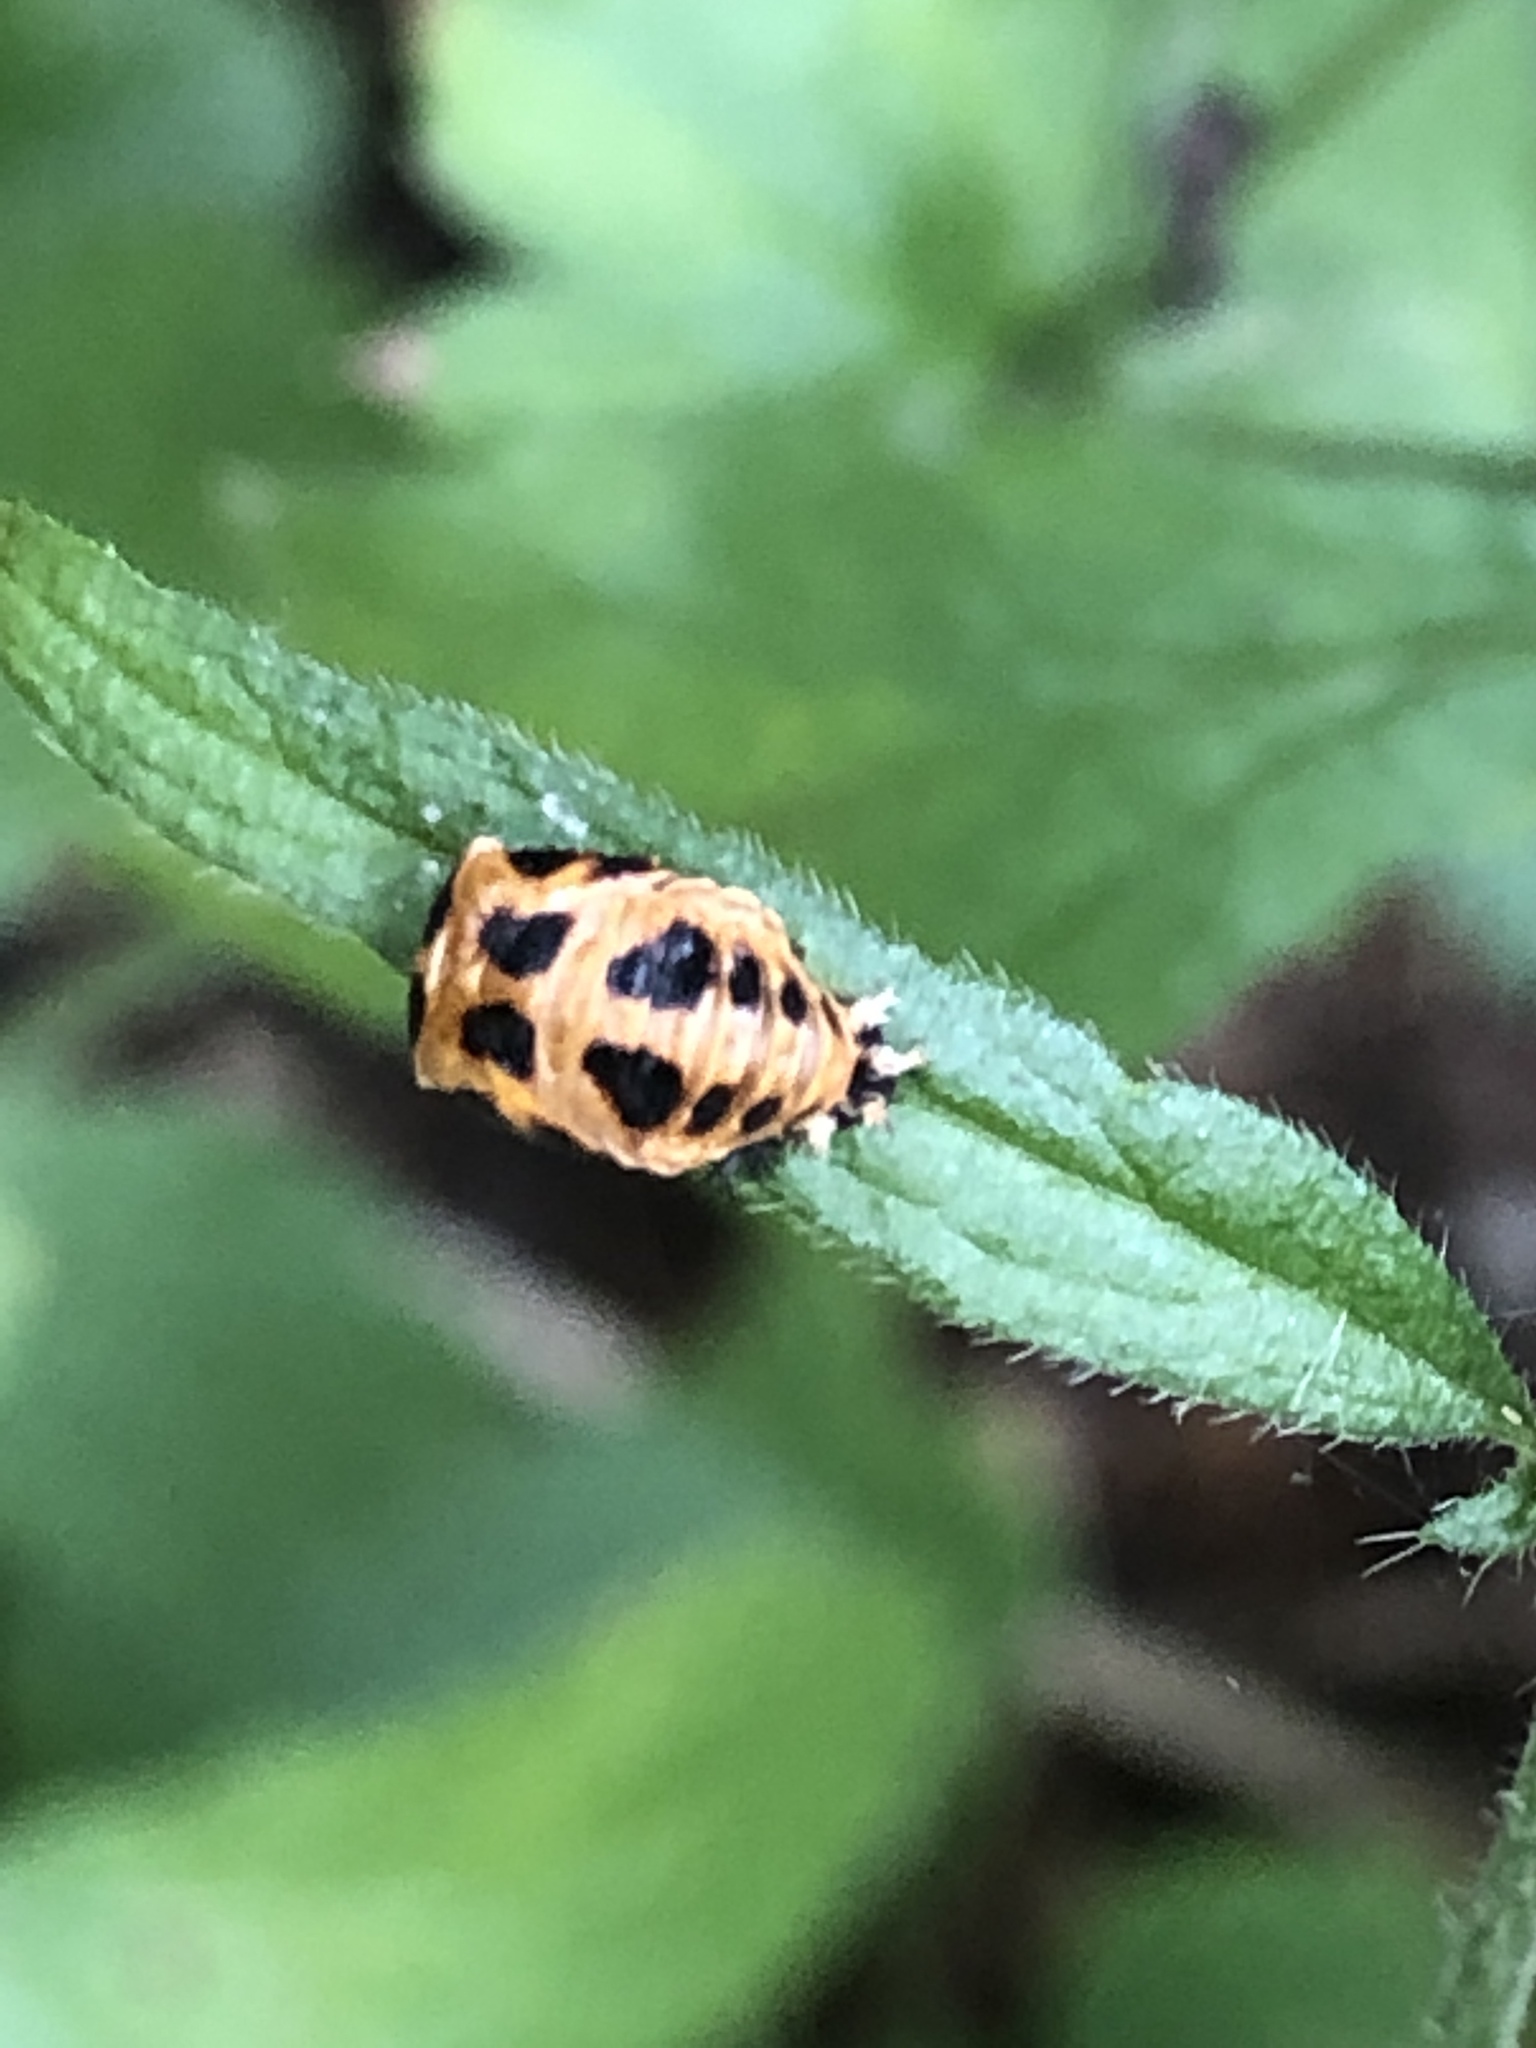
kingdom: Animalia
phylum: Arthropoda
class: Insecta
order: Coleoptera
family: Coccinellidae
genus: Harmonia
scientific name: Harmonia axyridis
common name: Harlequin ladybird
